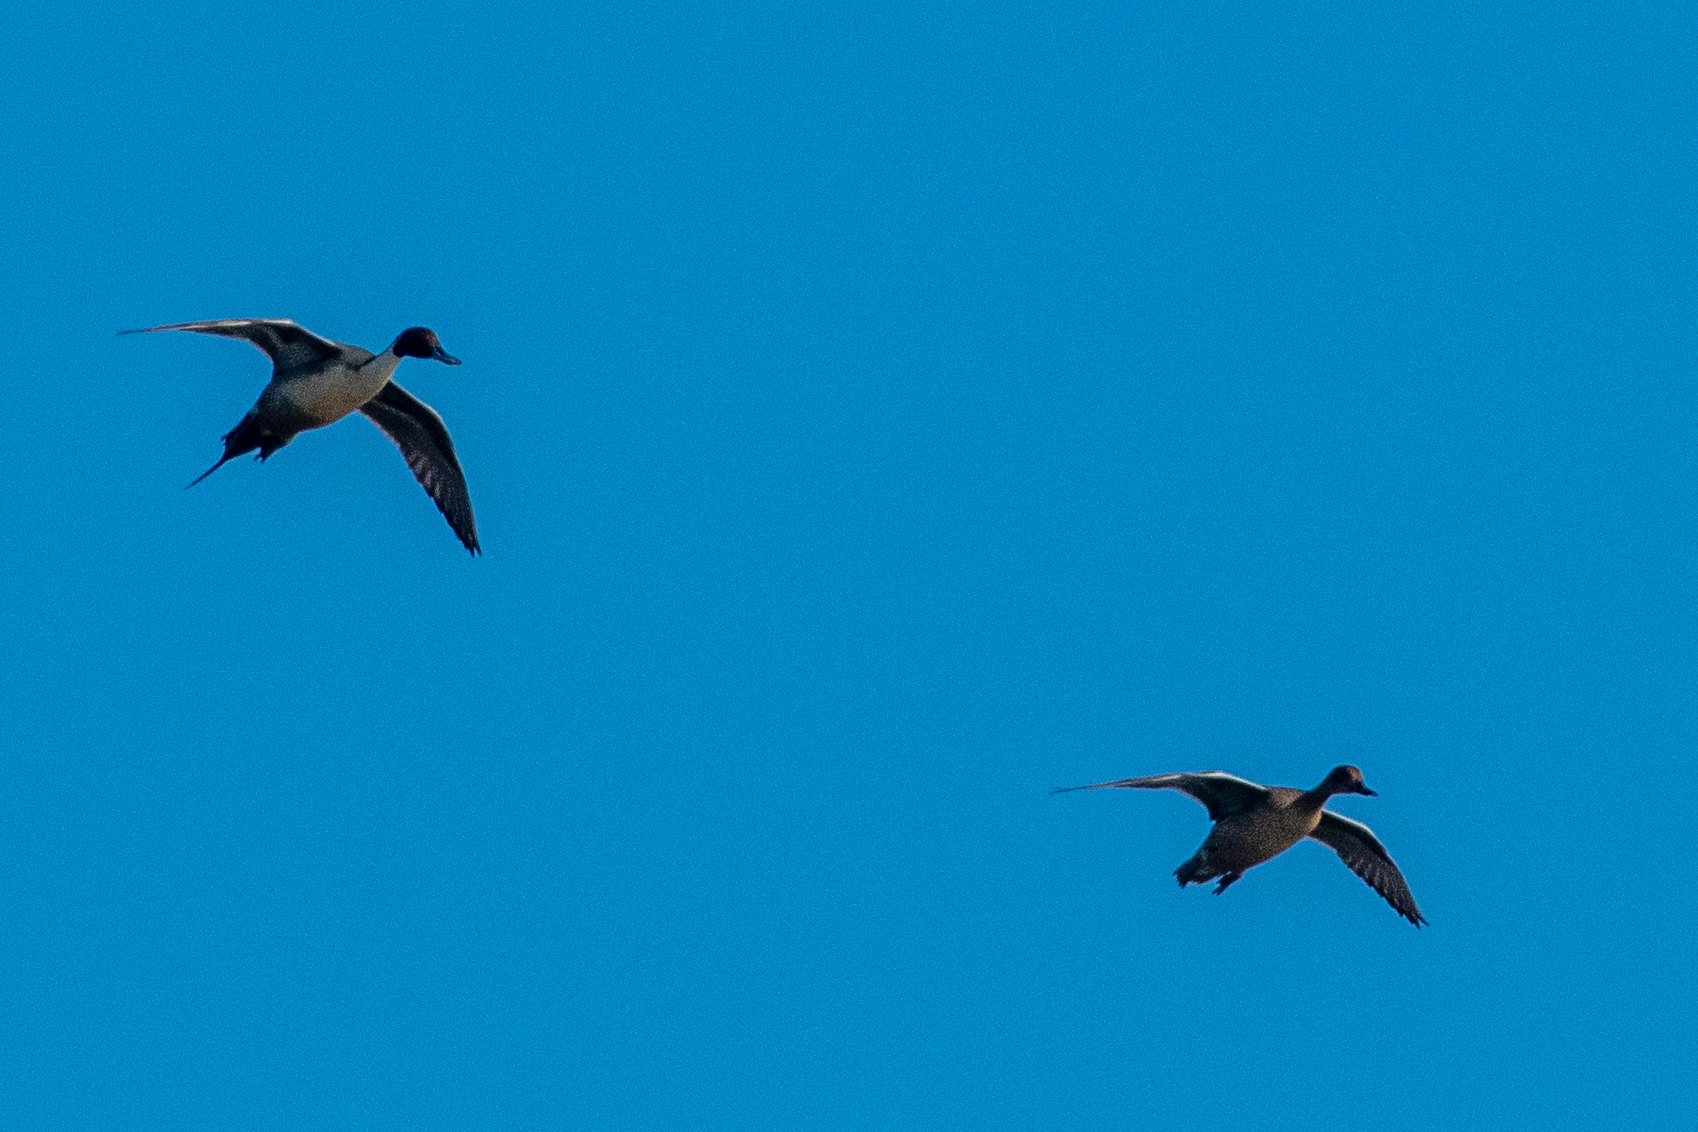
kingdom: Animalia
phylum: Chordata
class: Aves
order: Anseriformes
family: Anatidae
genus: Anas
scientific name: Anas acuta
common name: Northern pintail
